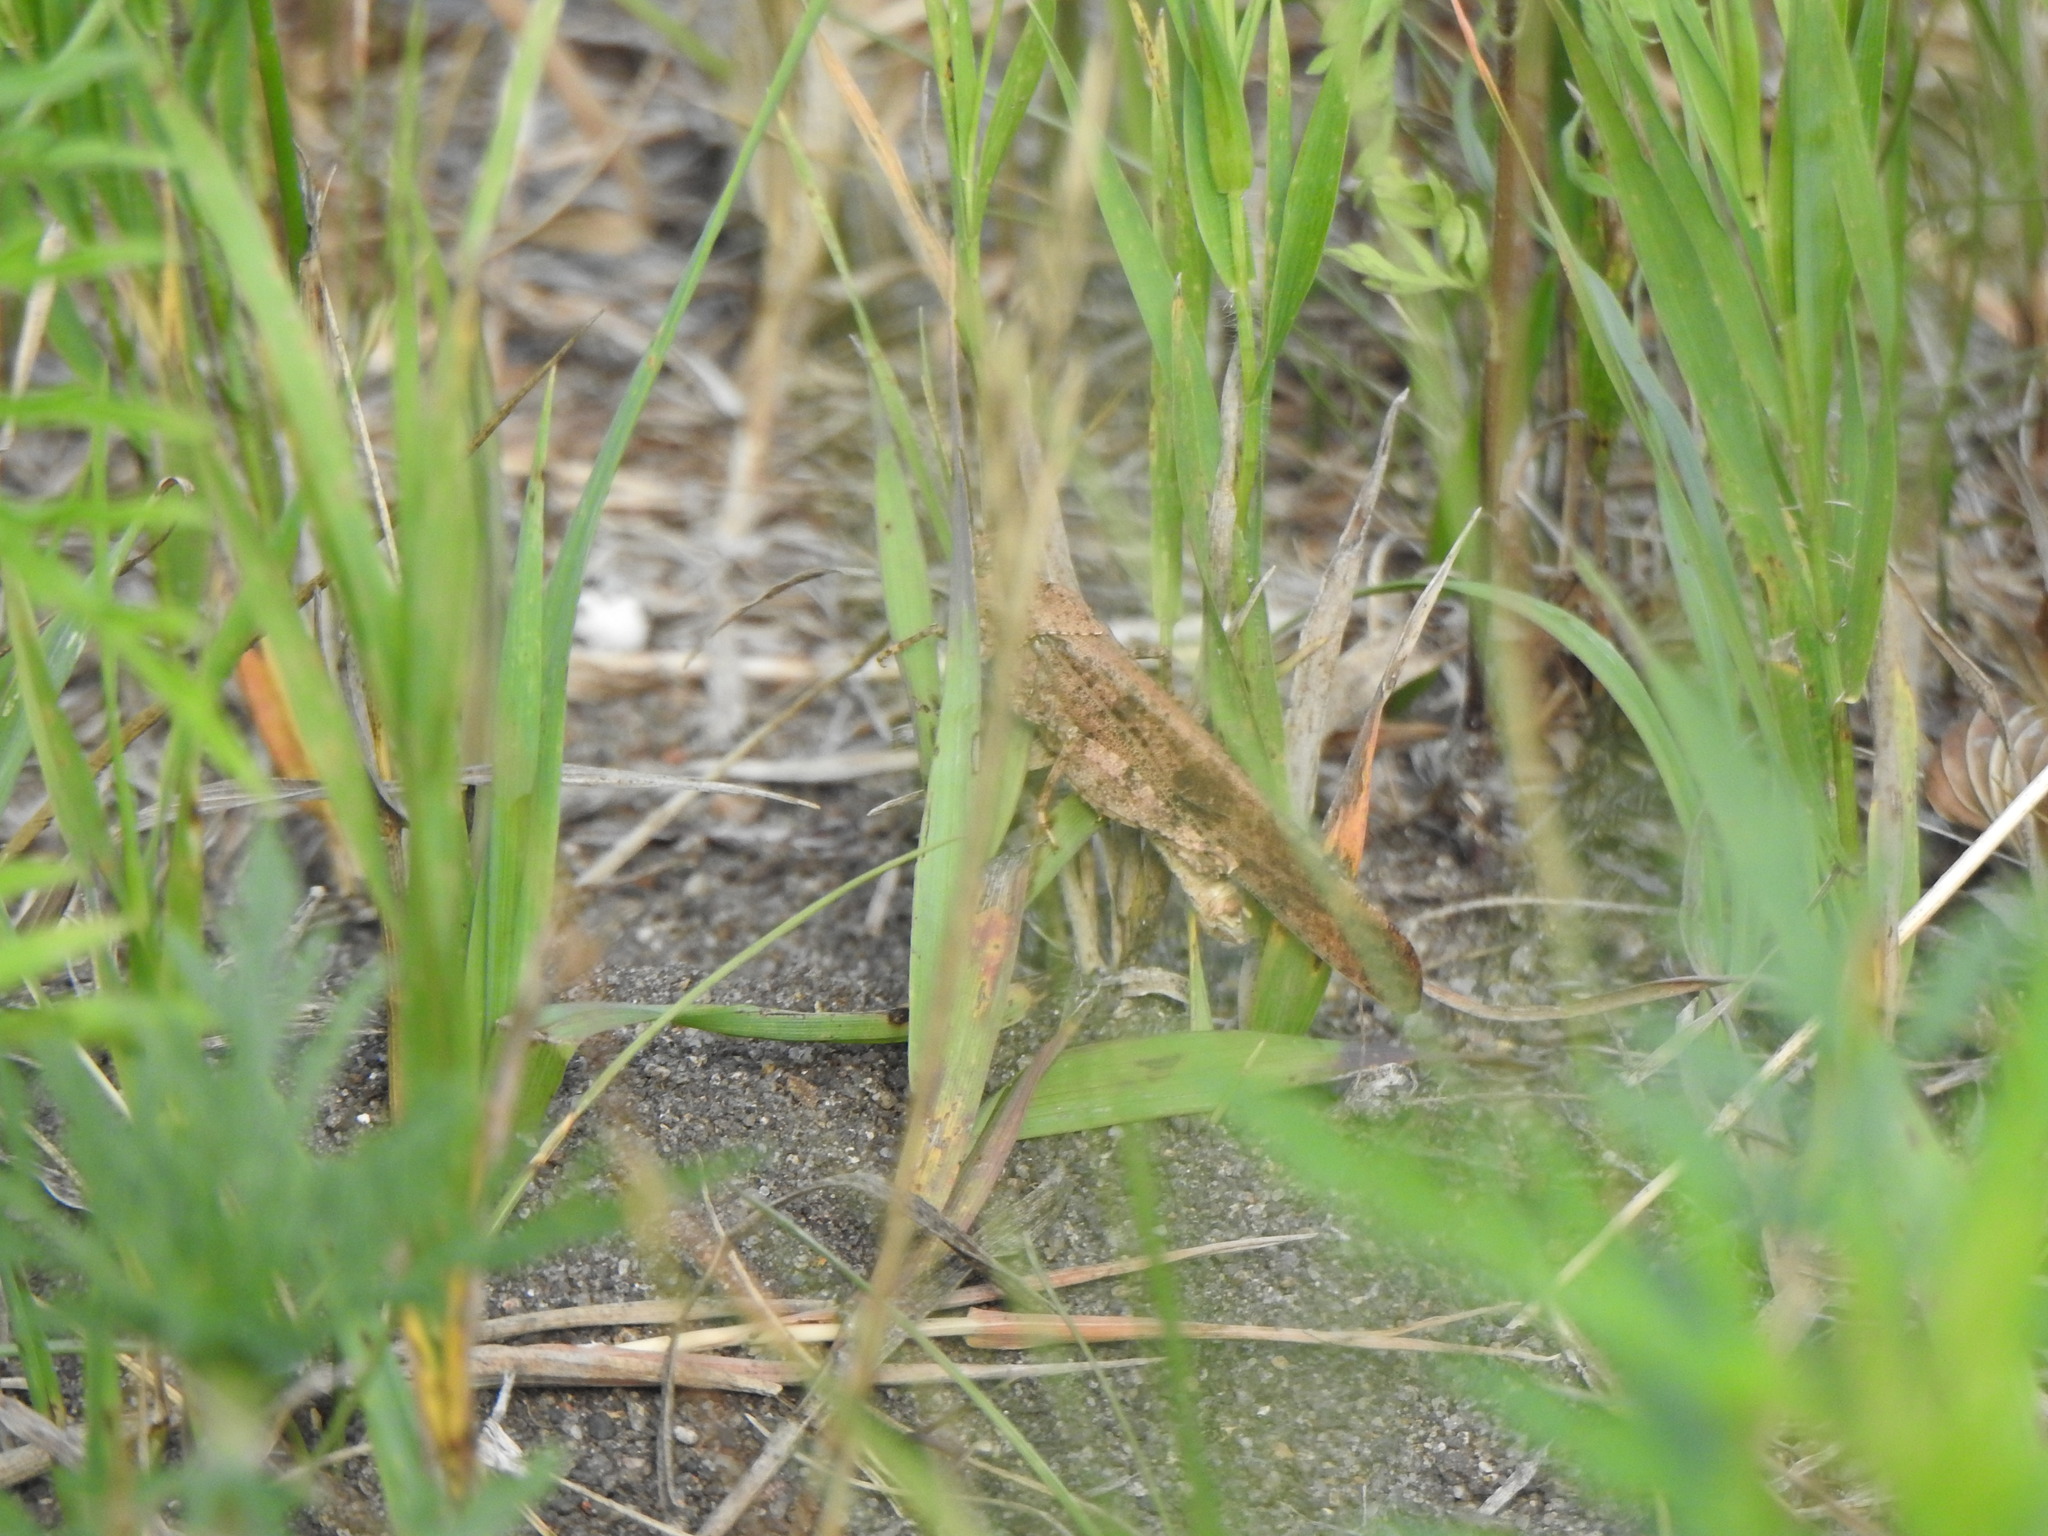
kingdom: Animalia
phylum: Arthropoda
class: Insecta
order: Orthoptera
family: Acrididae
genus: Dissosteira
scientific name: Dissosteira carolina
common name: Carolina grasshopper
